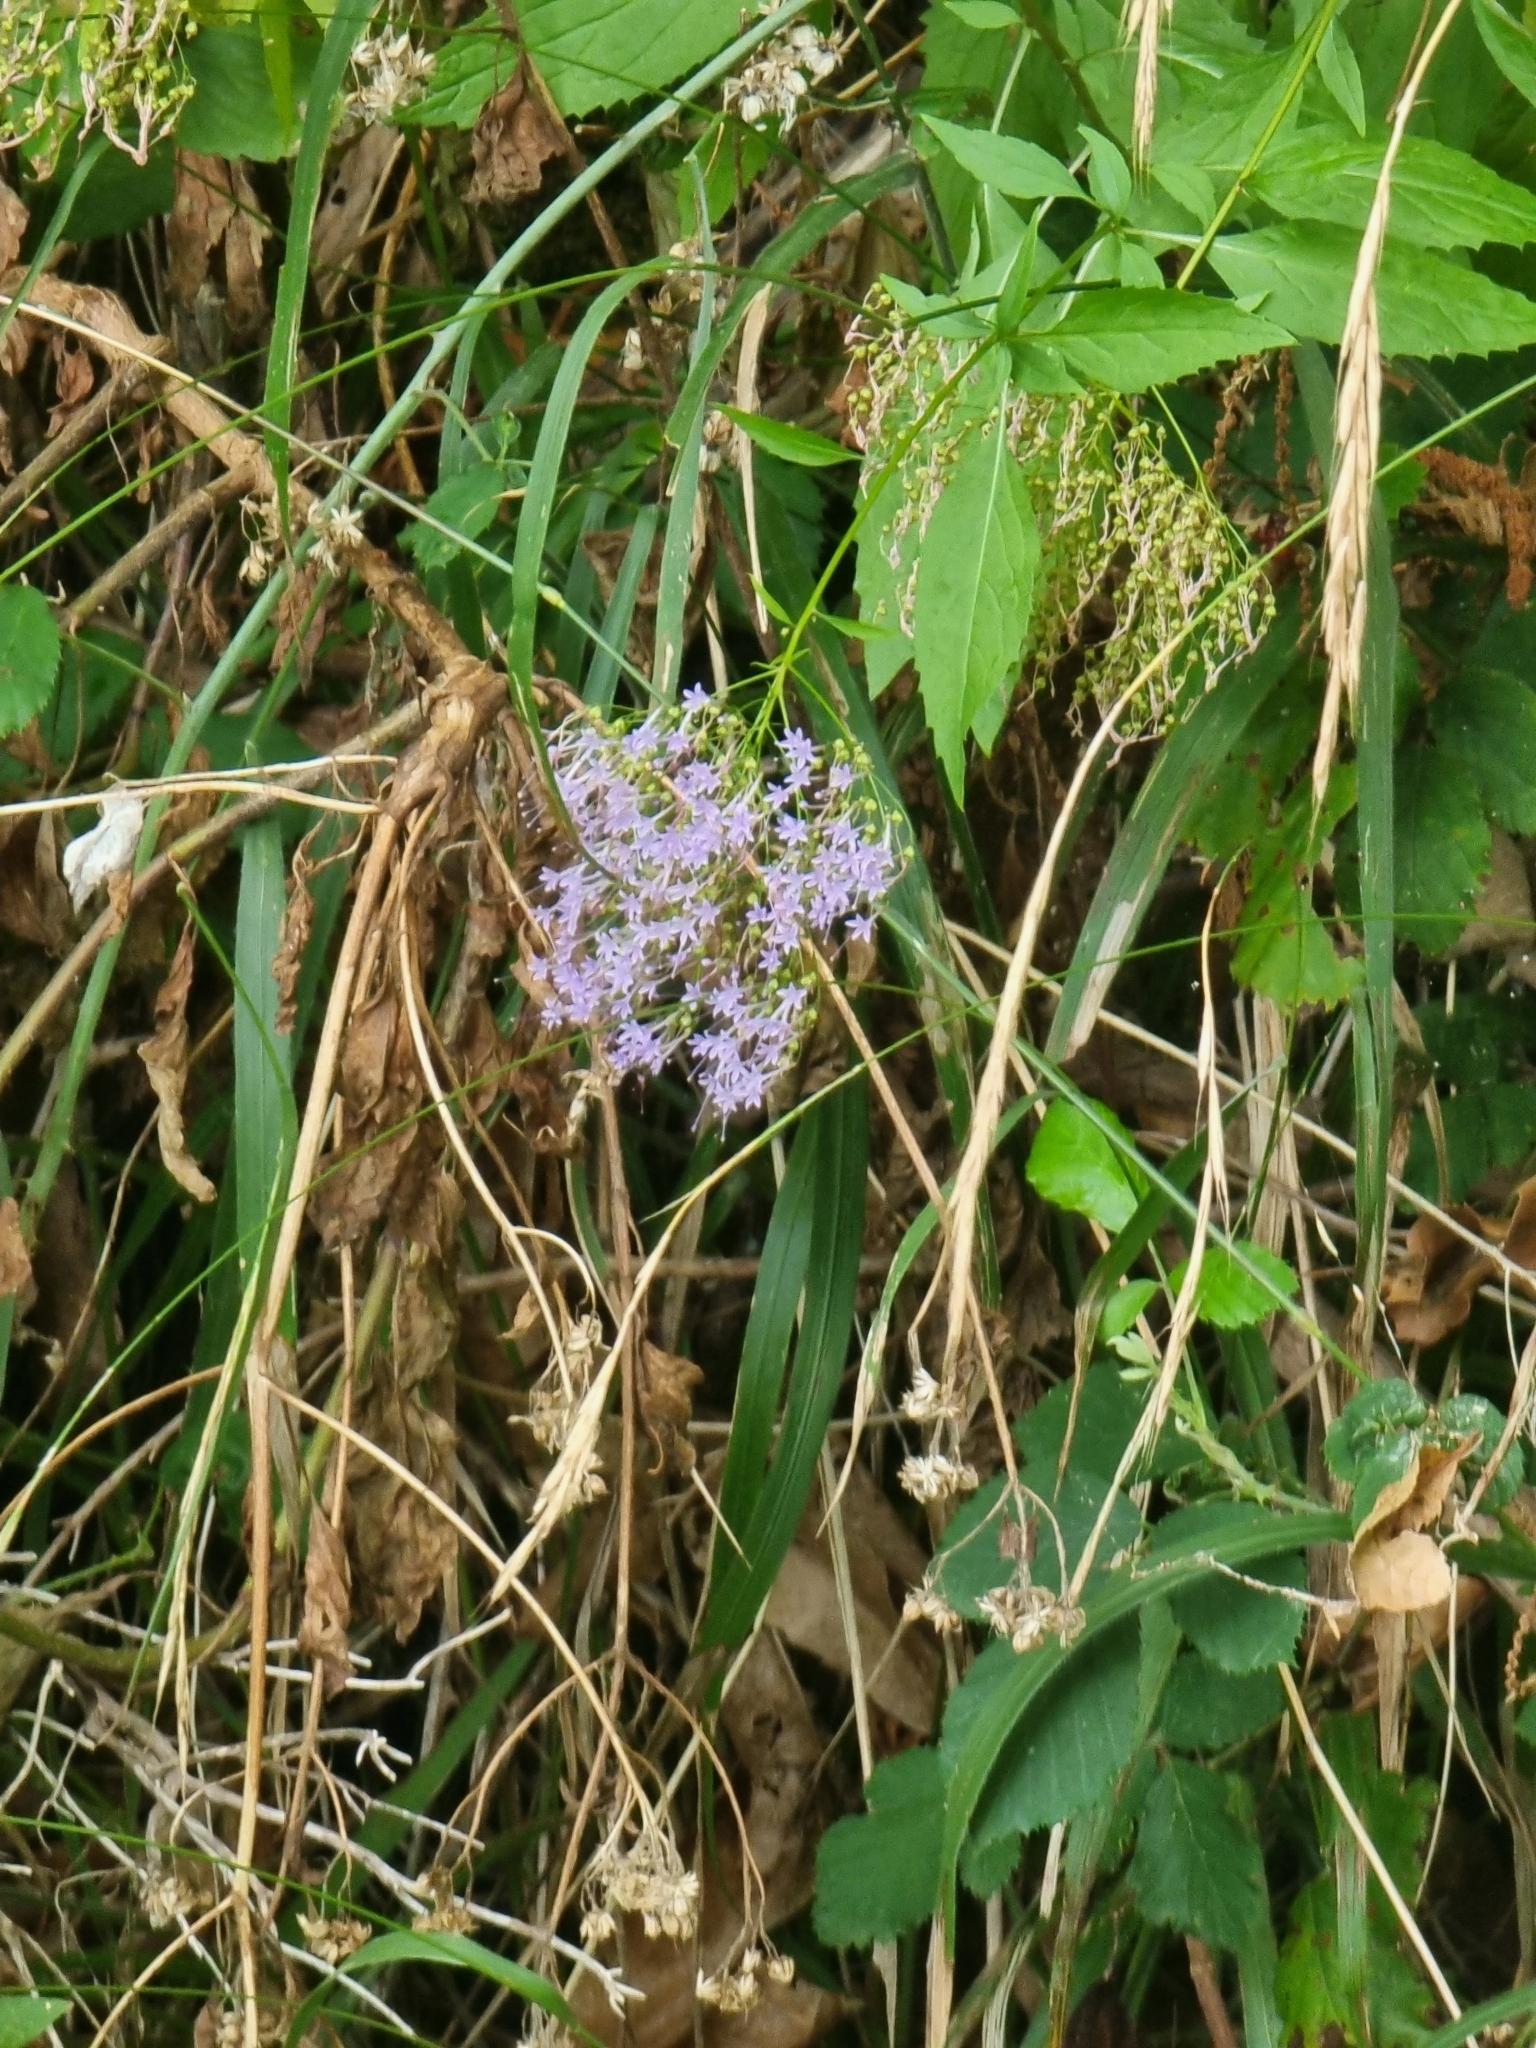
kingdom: Plantae
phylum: Tracheophyta
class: Magnoliopsida
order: Asterales
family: Campanulaceae
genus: Trachelium
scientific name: Trachelium caeruleum
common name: Throatwort
